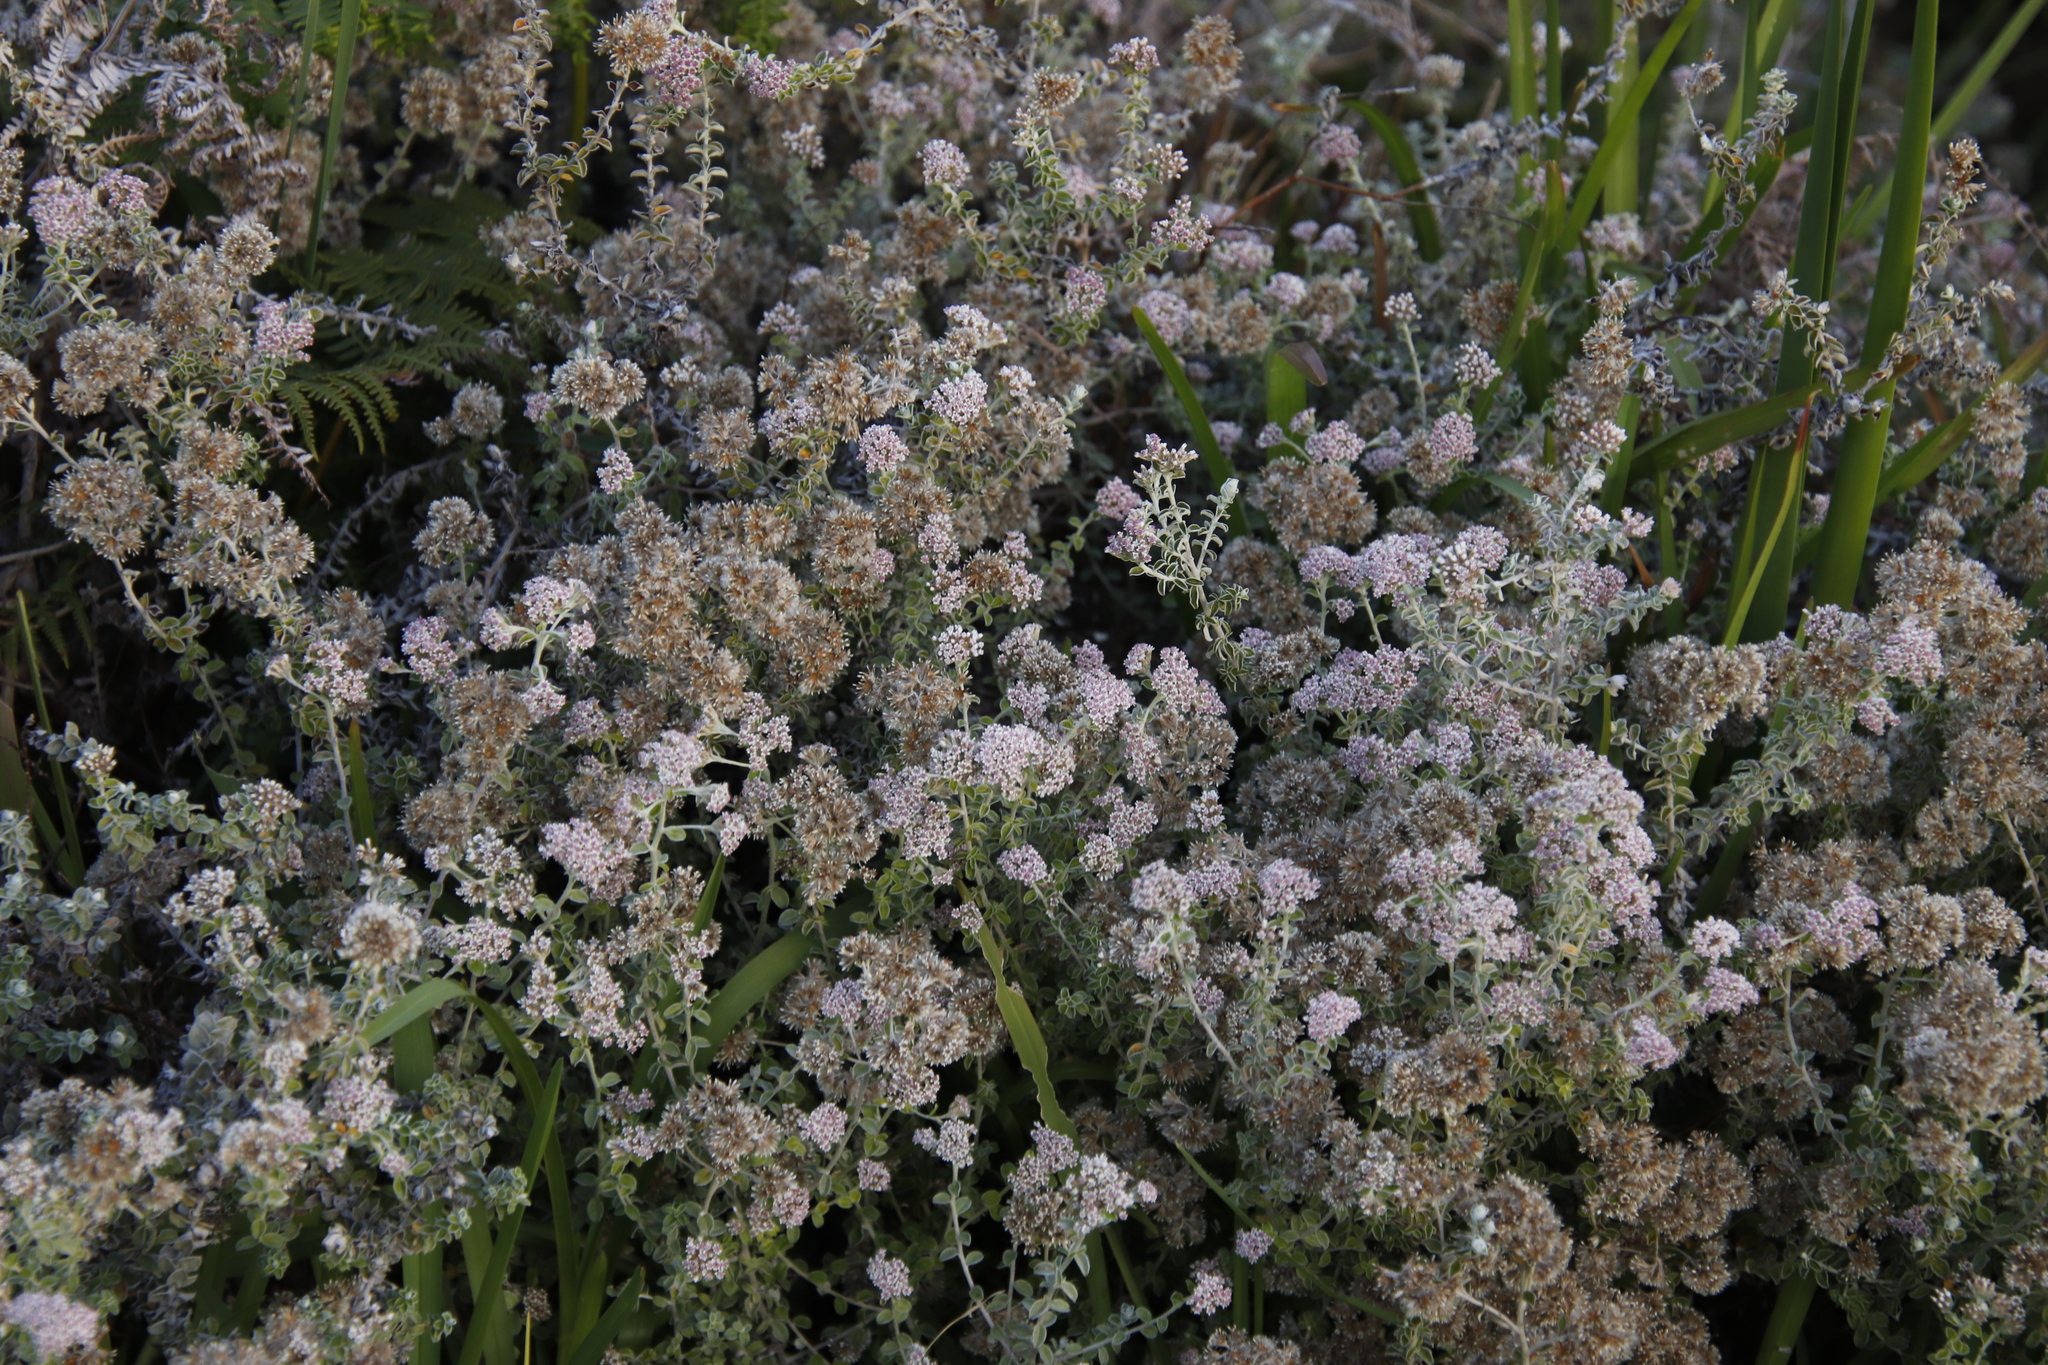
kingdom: Plantae
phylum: Tracheophyta
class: Magnoliopsida
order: Asterales
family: Asteraceae
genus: Plecostachys
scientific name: Plecostachys serpyllifolia
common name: Petite licorice
